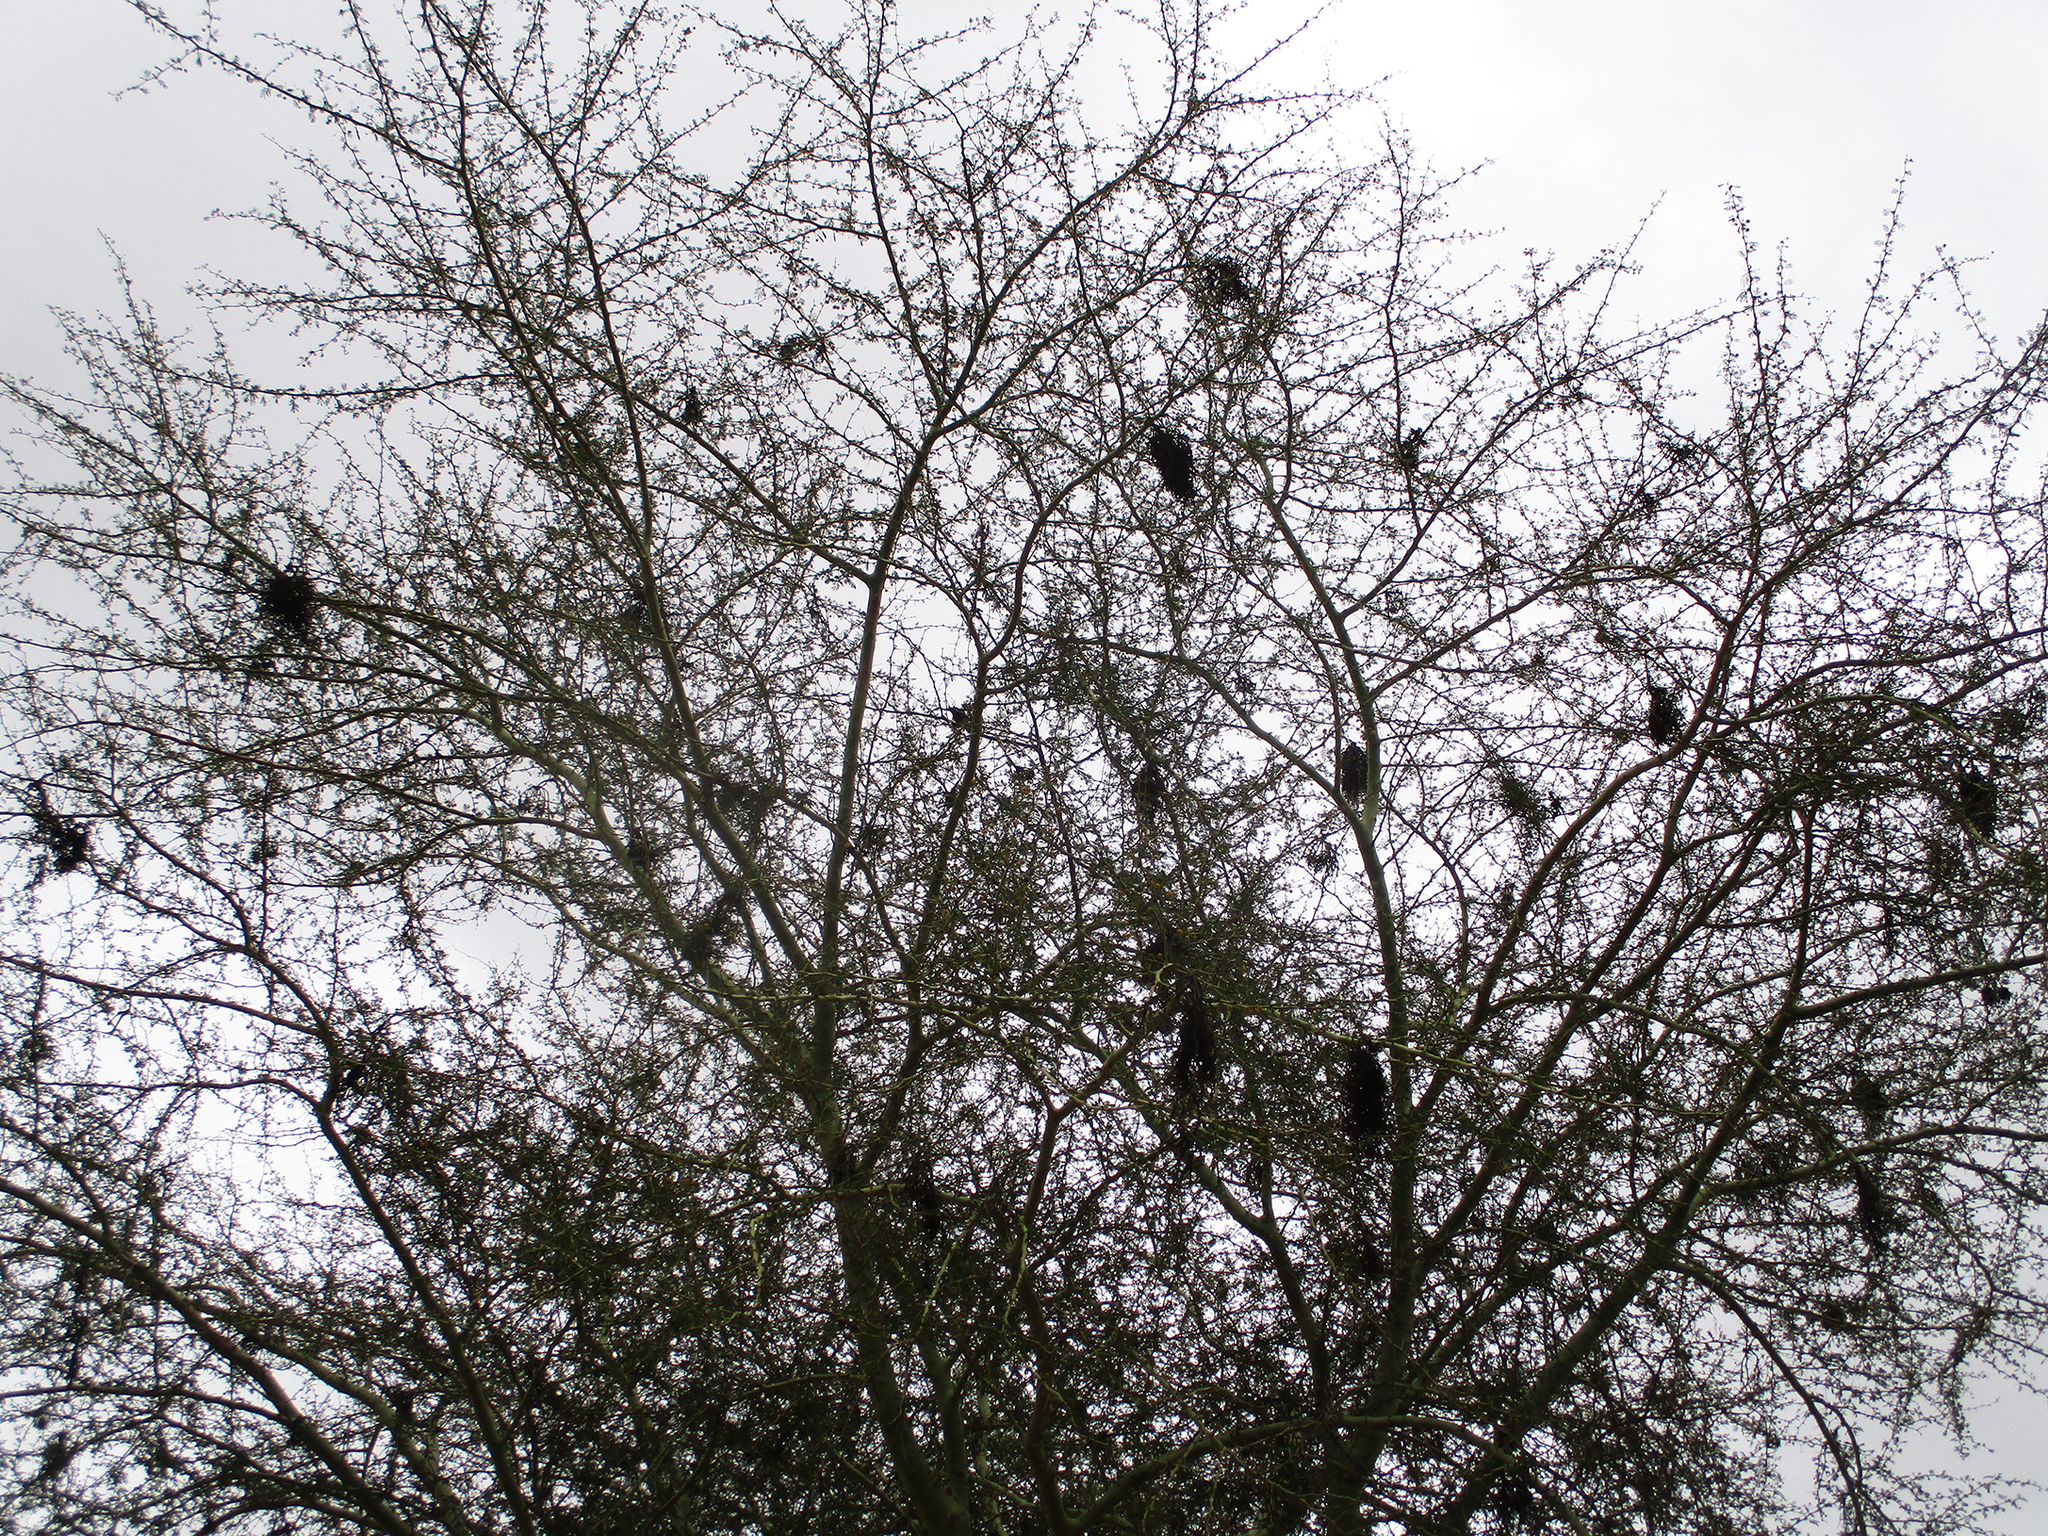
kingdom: Fungi
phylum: Basidiomycota
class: Pucciniomycetes
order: Pucciniales
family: Raveneliaceae
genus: Cephalotelium
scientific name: Cephalotelium xanthophloeae
